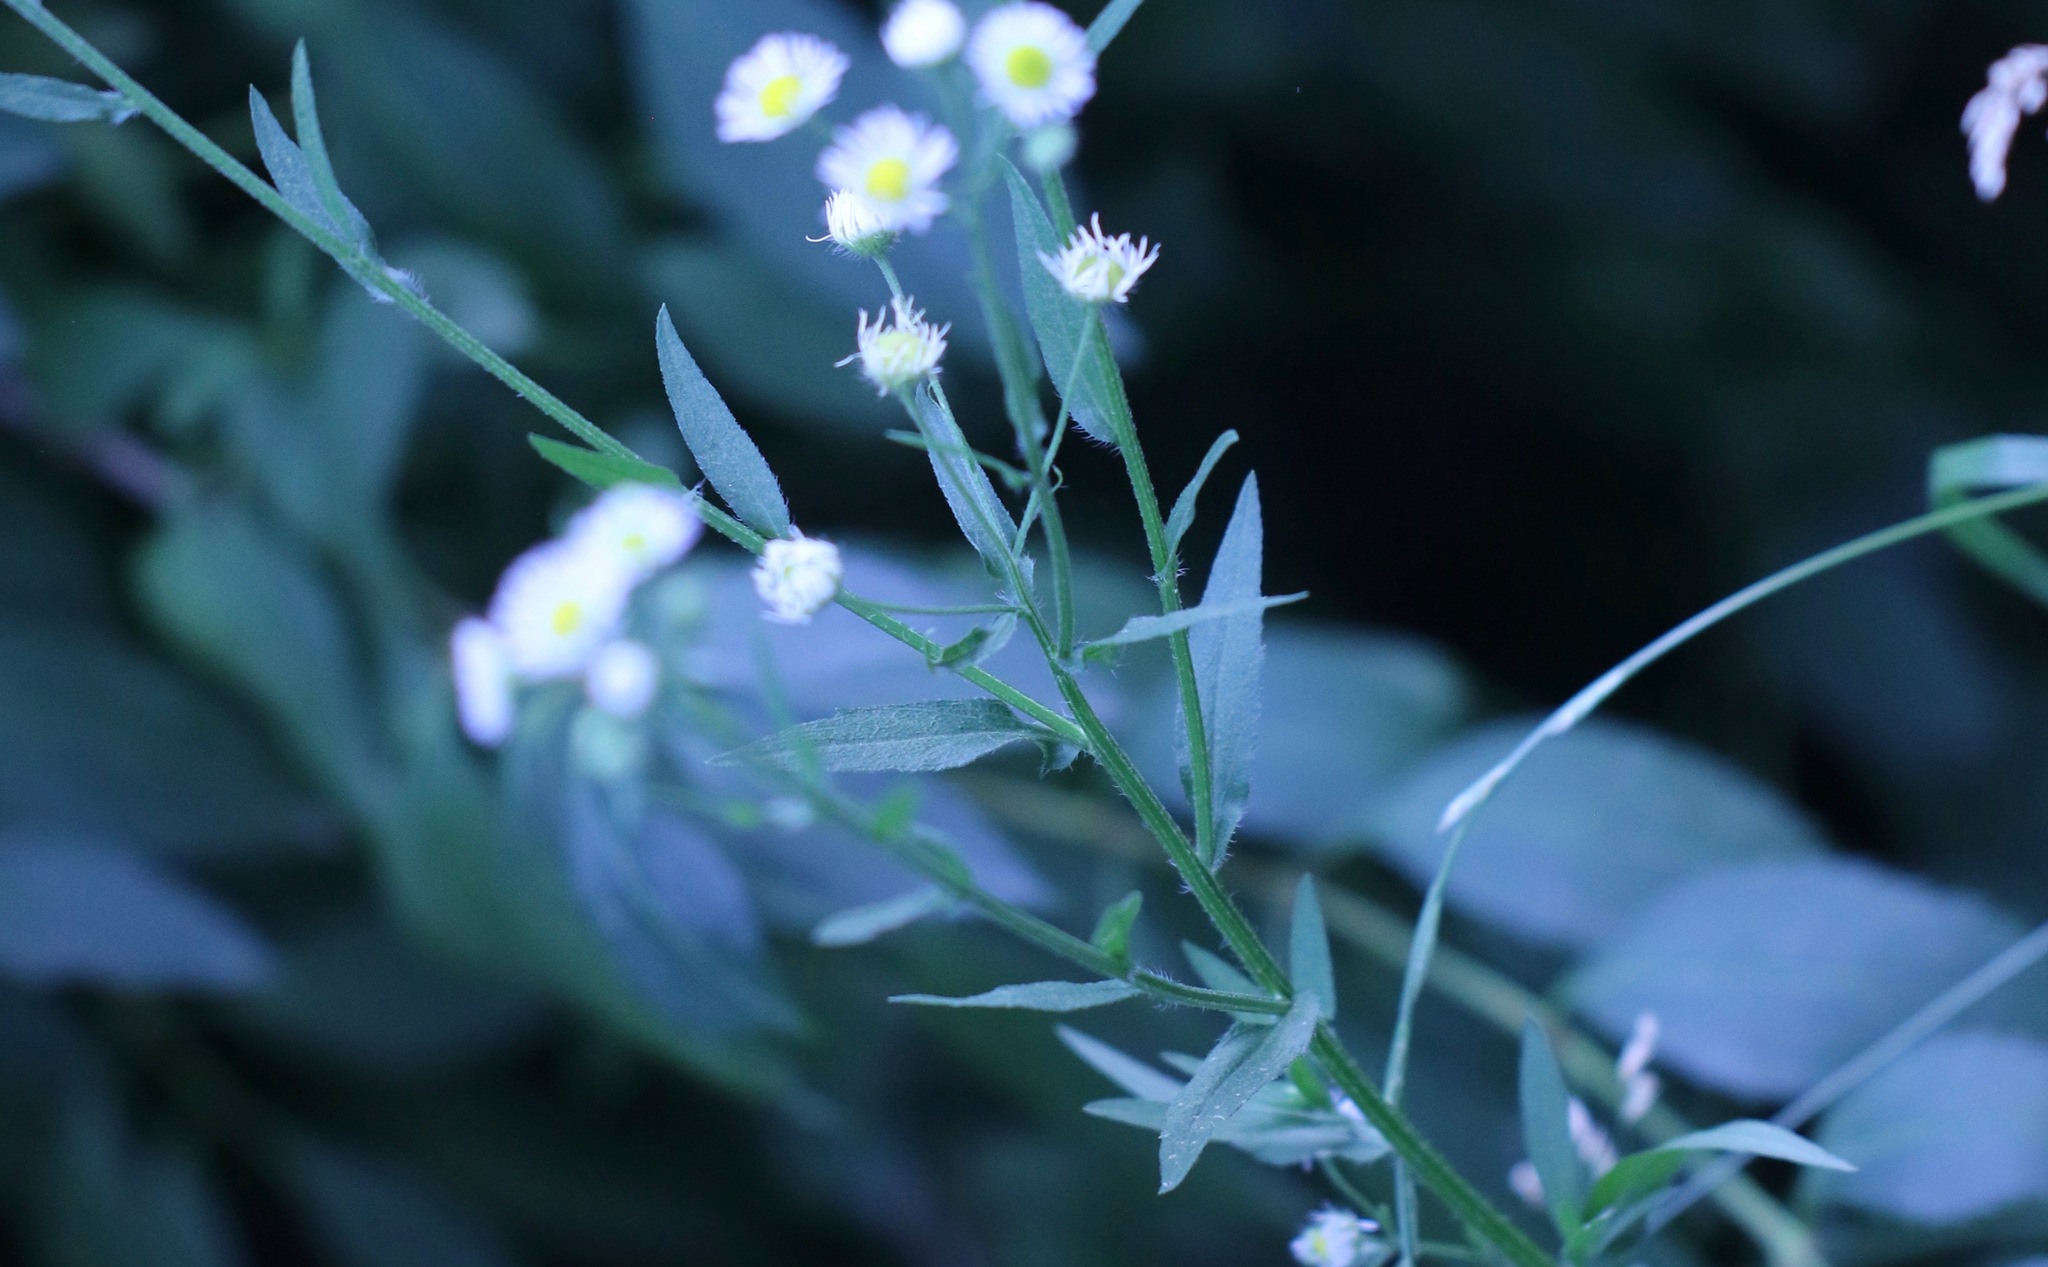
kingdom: Plantae
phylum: Tracheophyta
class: Magnoliopsida
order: Asterales
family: Asteraceae
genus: Erigeron
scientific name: Erigeron strigosus
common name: Common eastern fleabane
